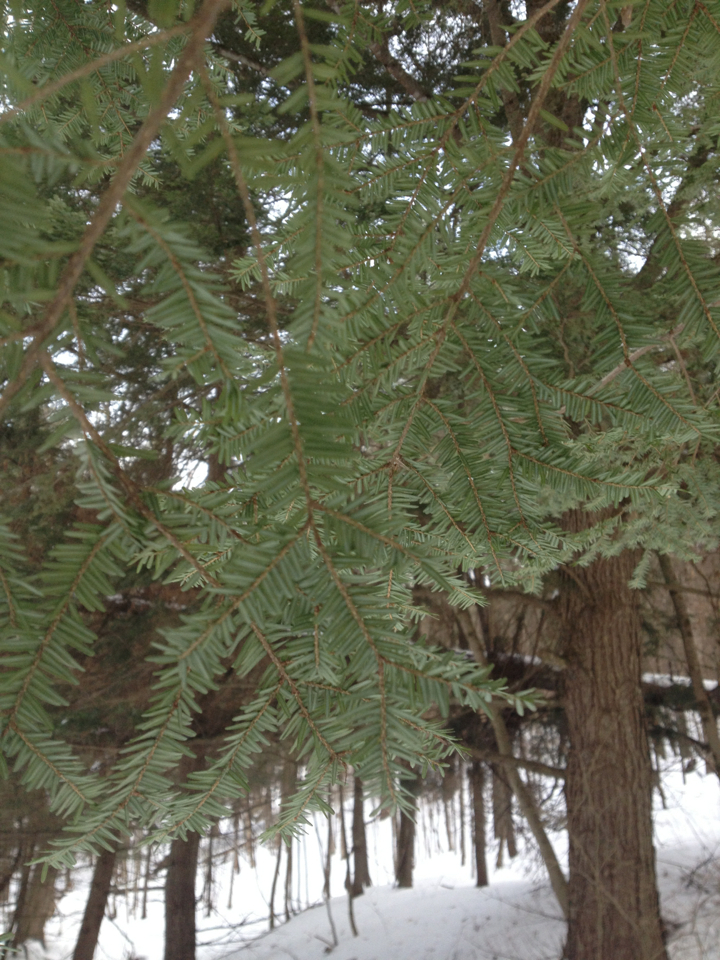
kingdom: Plantae
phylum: Tracheophyta
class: Pinopsida
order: Pinales
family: Pinaceae
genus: Tsuga
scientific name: Tsuga canadensis
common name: Eastern hemlock
